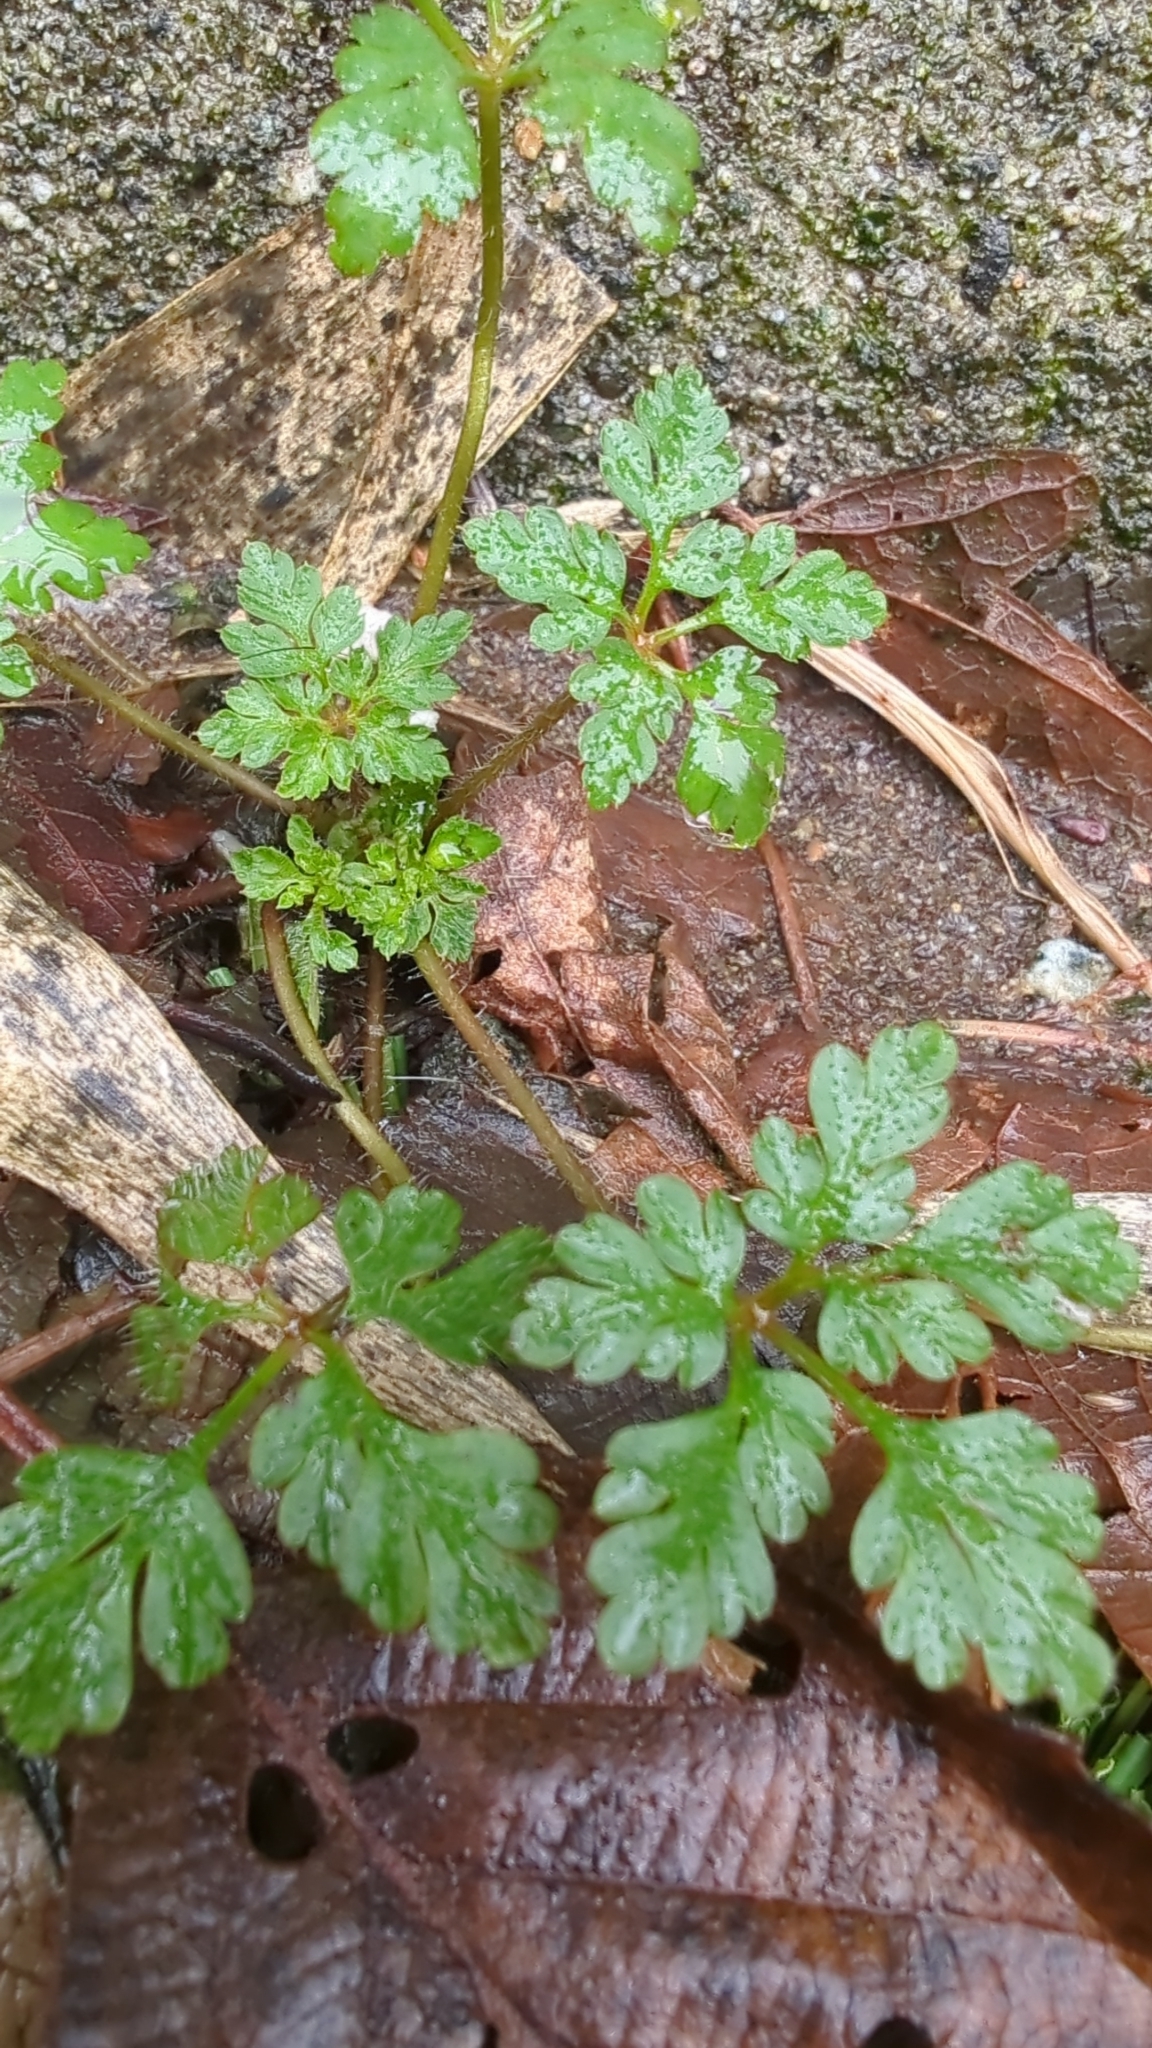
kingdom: Plantae
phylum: Tracheophyta
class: Magnoliopsida
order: Geraniales
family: Geraniaceae
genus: Geranium
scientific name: Geranium robertianum
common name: Herb-robert
